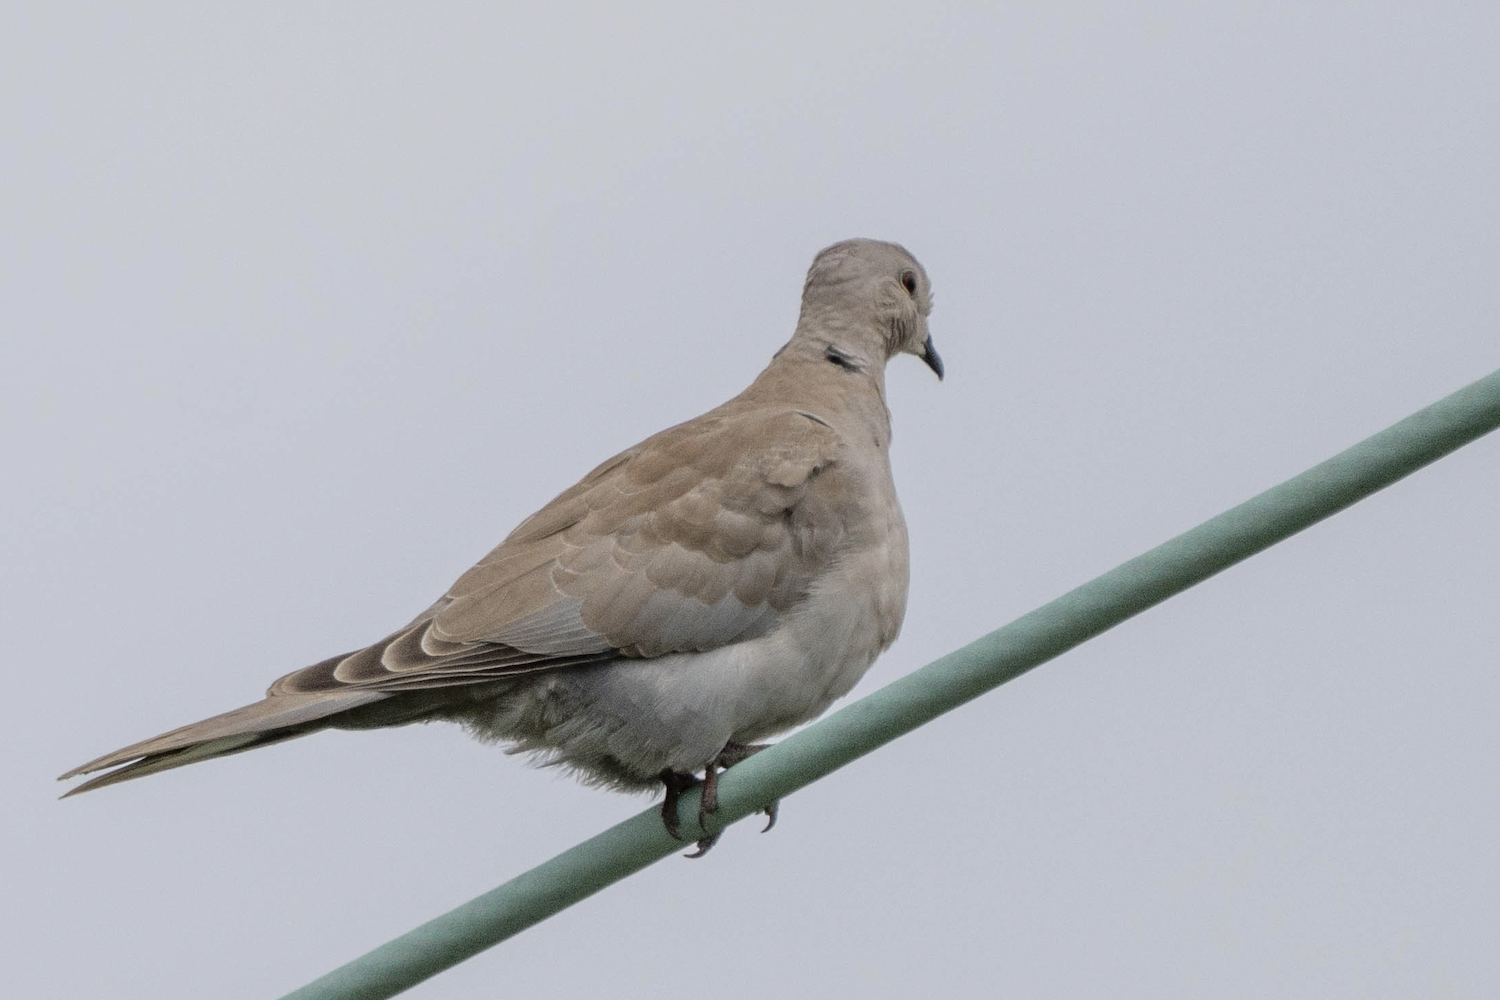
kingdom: Animalia
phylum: Chordata
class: Aves
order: Columbiformes
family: Columbidae
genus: Streptopelia
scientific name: Streptopelia decaocto
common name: Eurasian collared dove
